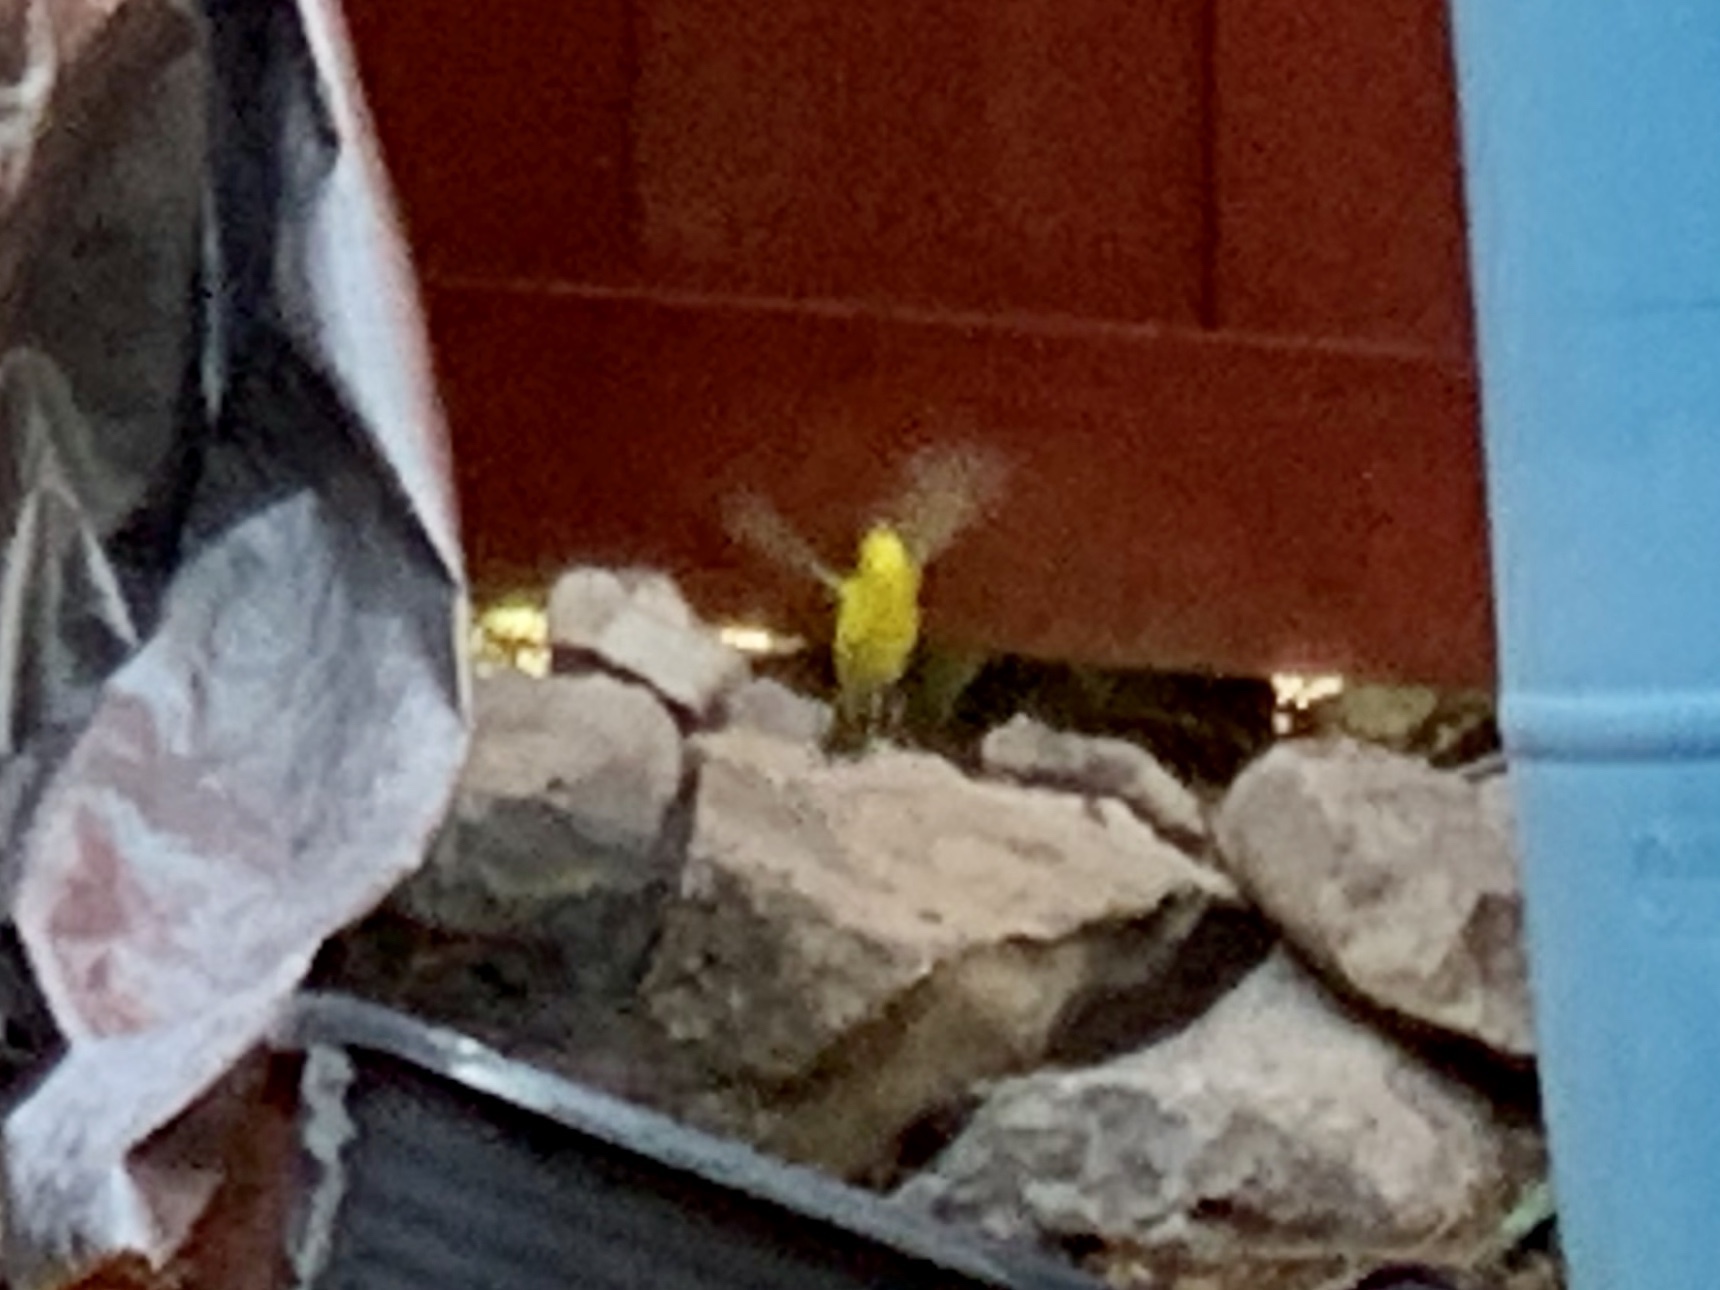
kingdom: Animalia
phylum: Chordata
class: Aves
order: Passeriformes
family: Parulidae
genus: Cardellina
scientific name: Cardellina pusilla
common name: Wilson's warbler
